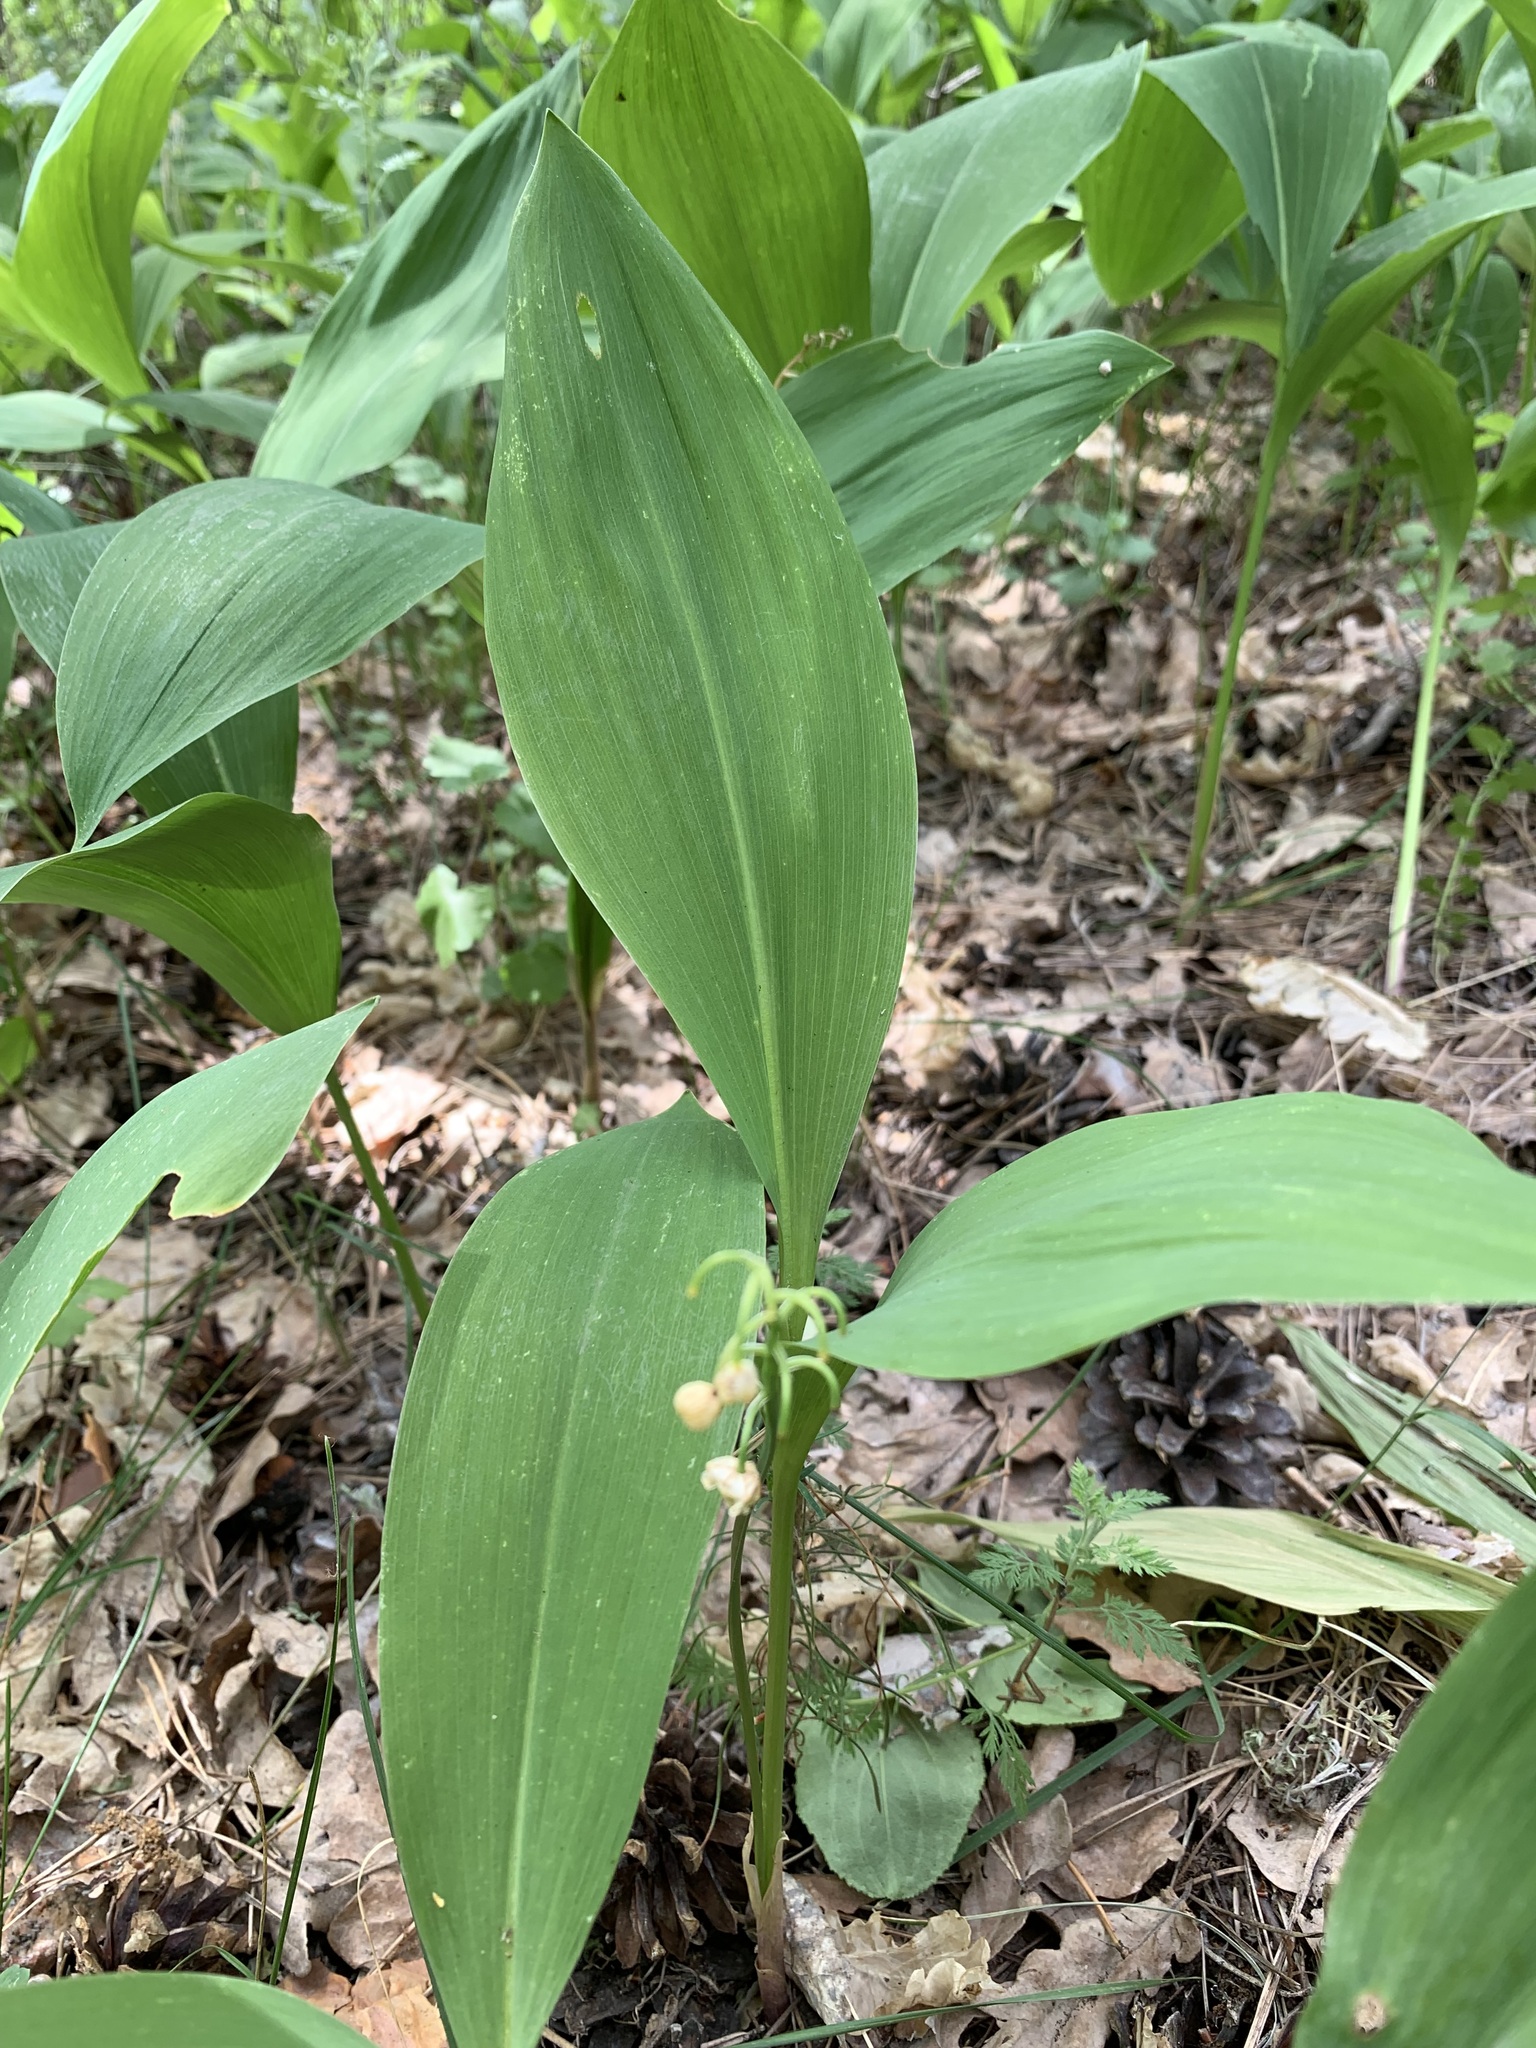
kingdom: Plantae
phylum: Tracheophyta
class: Liliopsida
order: Asparagales
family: Asparagaceae
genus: Convallaria
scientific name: Convallaria majalis
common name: Lily-of-the-valley
